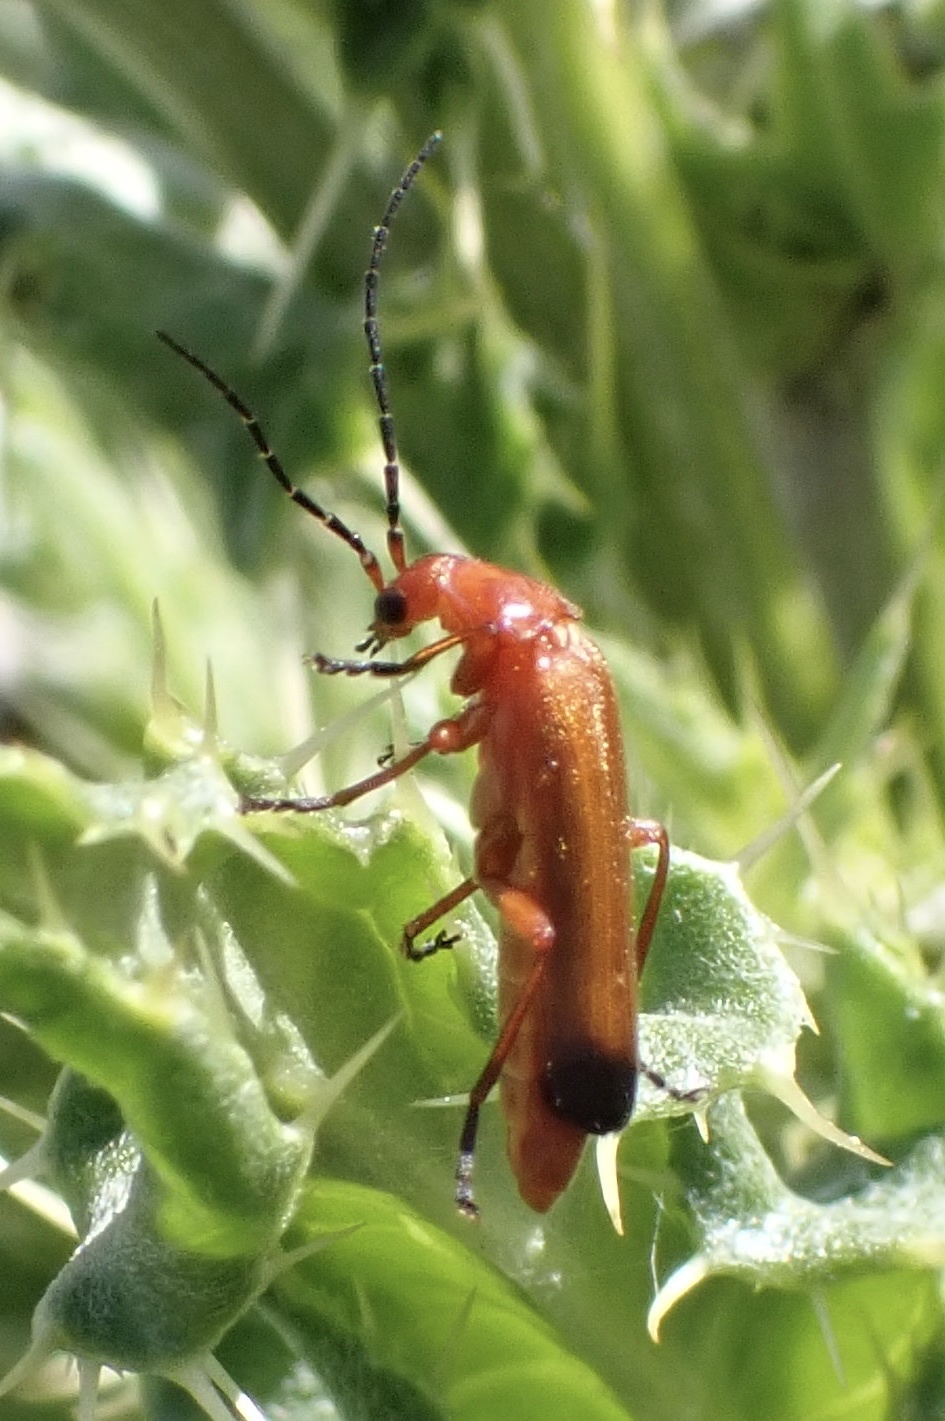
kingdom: Animalia
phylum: Arthropoda
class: Insecta
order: Coleoptera
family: Cantharidae
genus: Rhagonycha
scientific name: Rhagonycha fulva
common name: Common red soldier beetle
